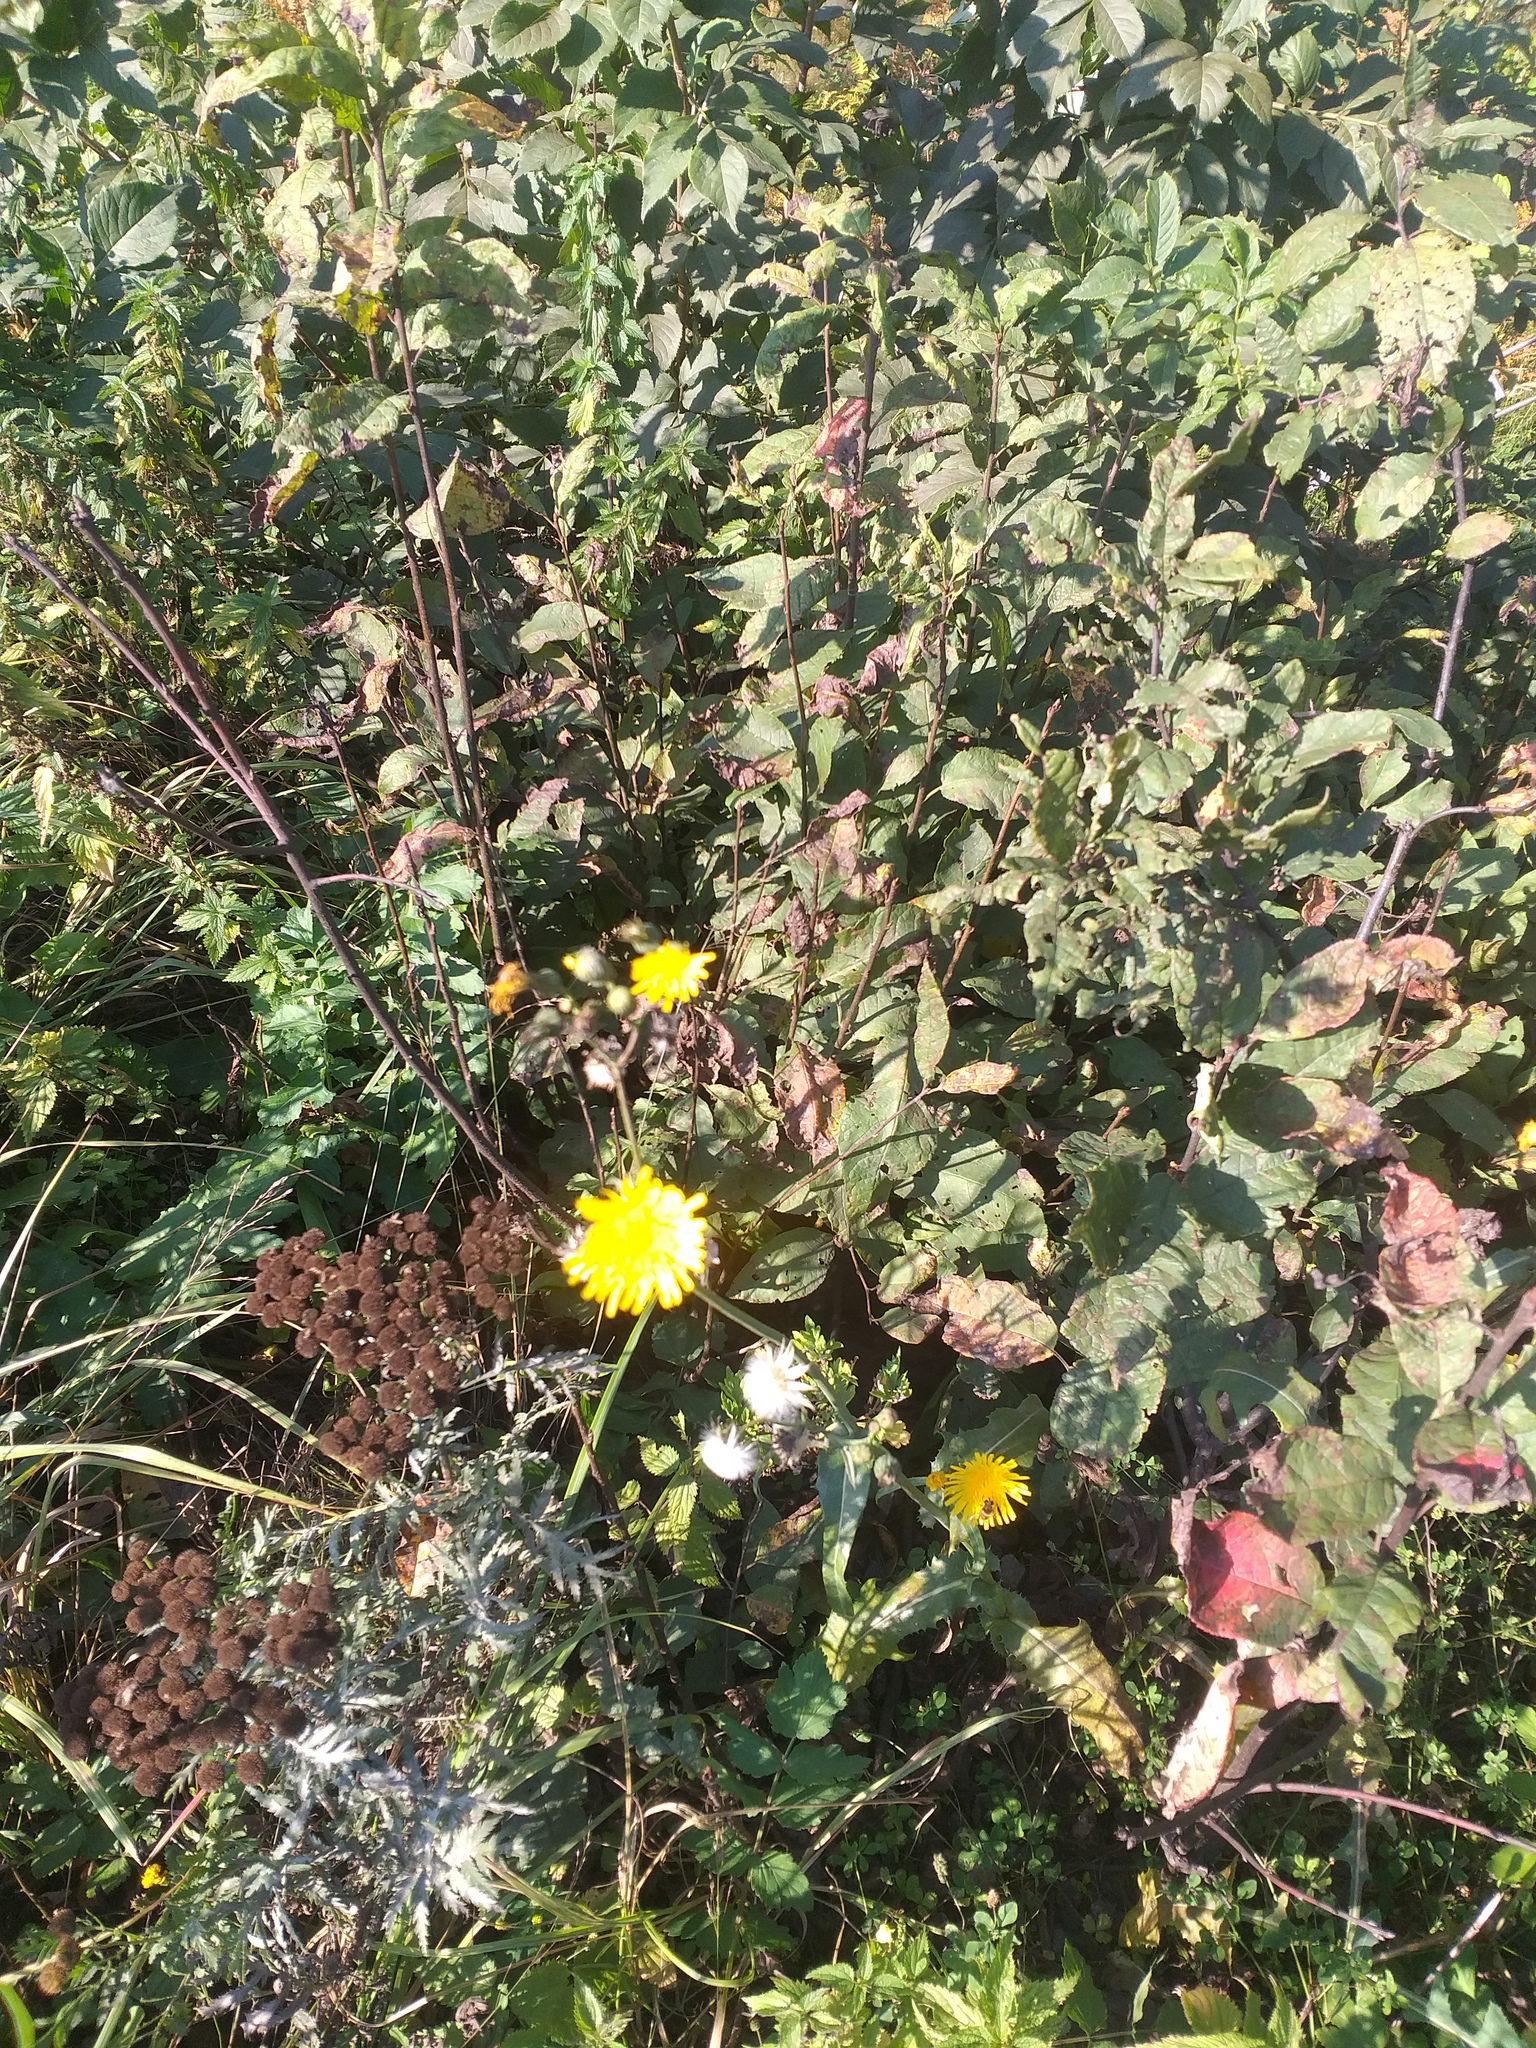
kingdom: Plantae
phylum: Tracheophyta
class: Magnoliopsida
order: Asterales
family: Asteraceae
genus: Sonchus
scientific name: Sonchus arvensis
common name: Perennial sow-thistle
